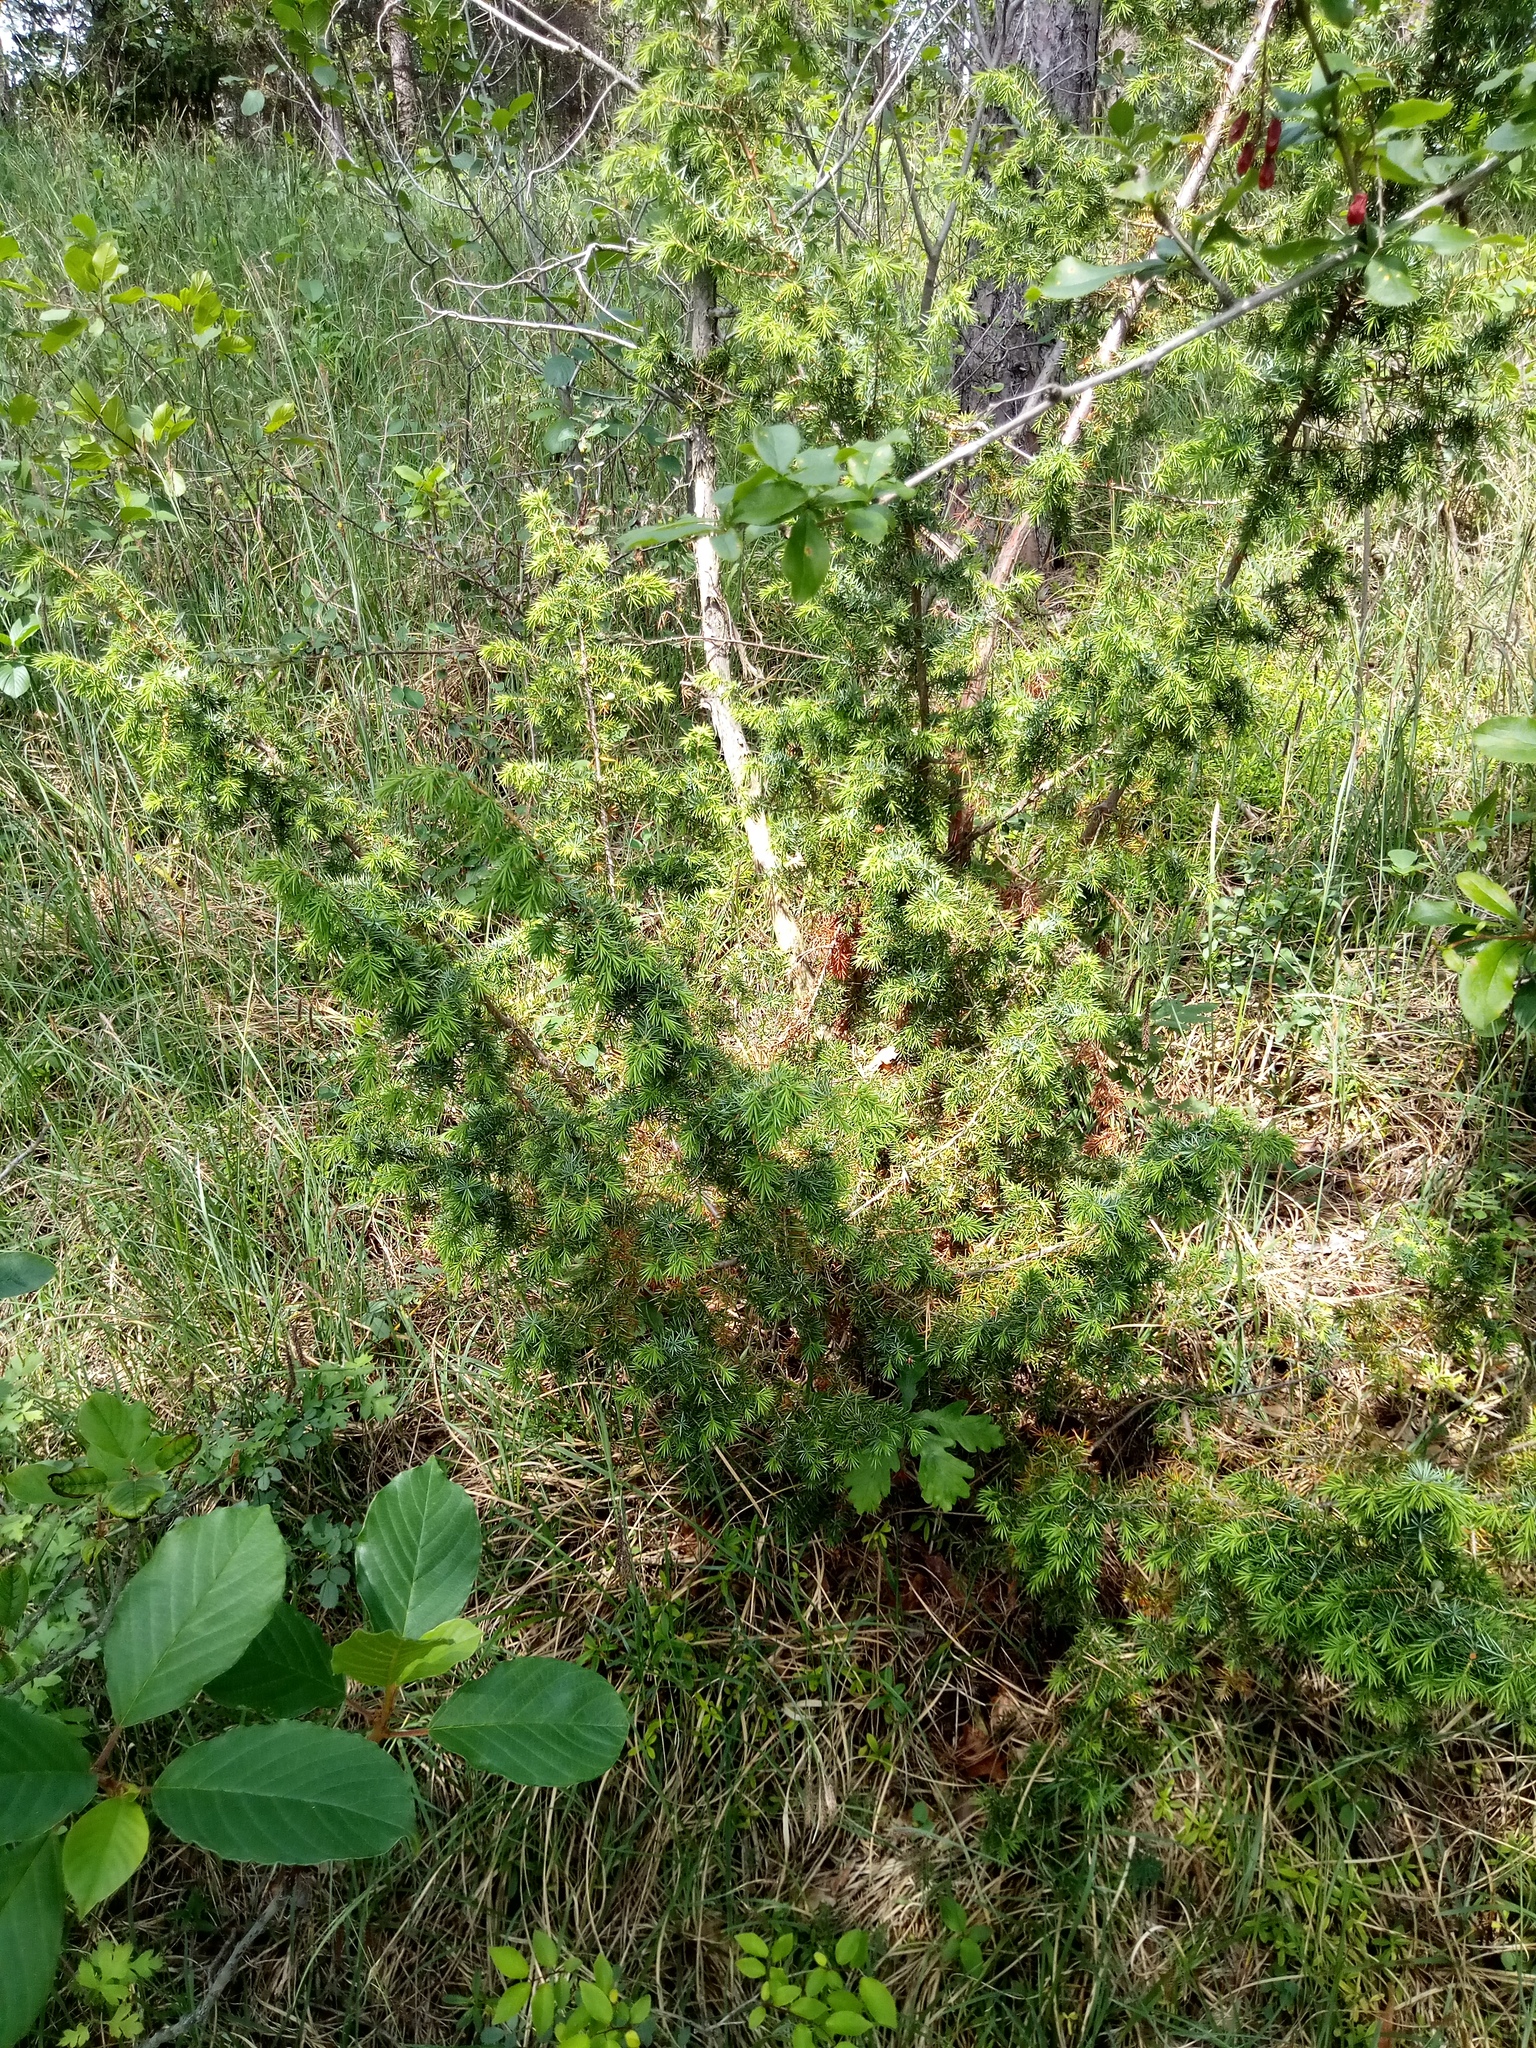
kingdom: Plantae
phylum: Tracheophyta
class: Pinopsida
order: Pinales
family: Cupressaceae
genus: Juniperus
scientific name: Juniperus communis
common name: Common juniper
